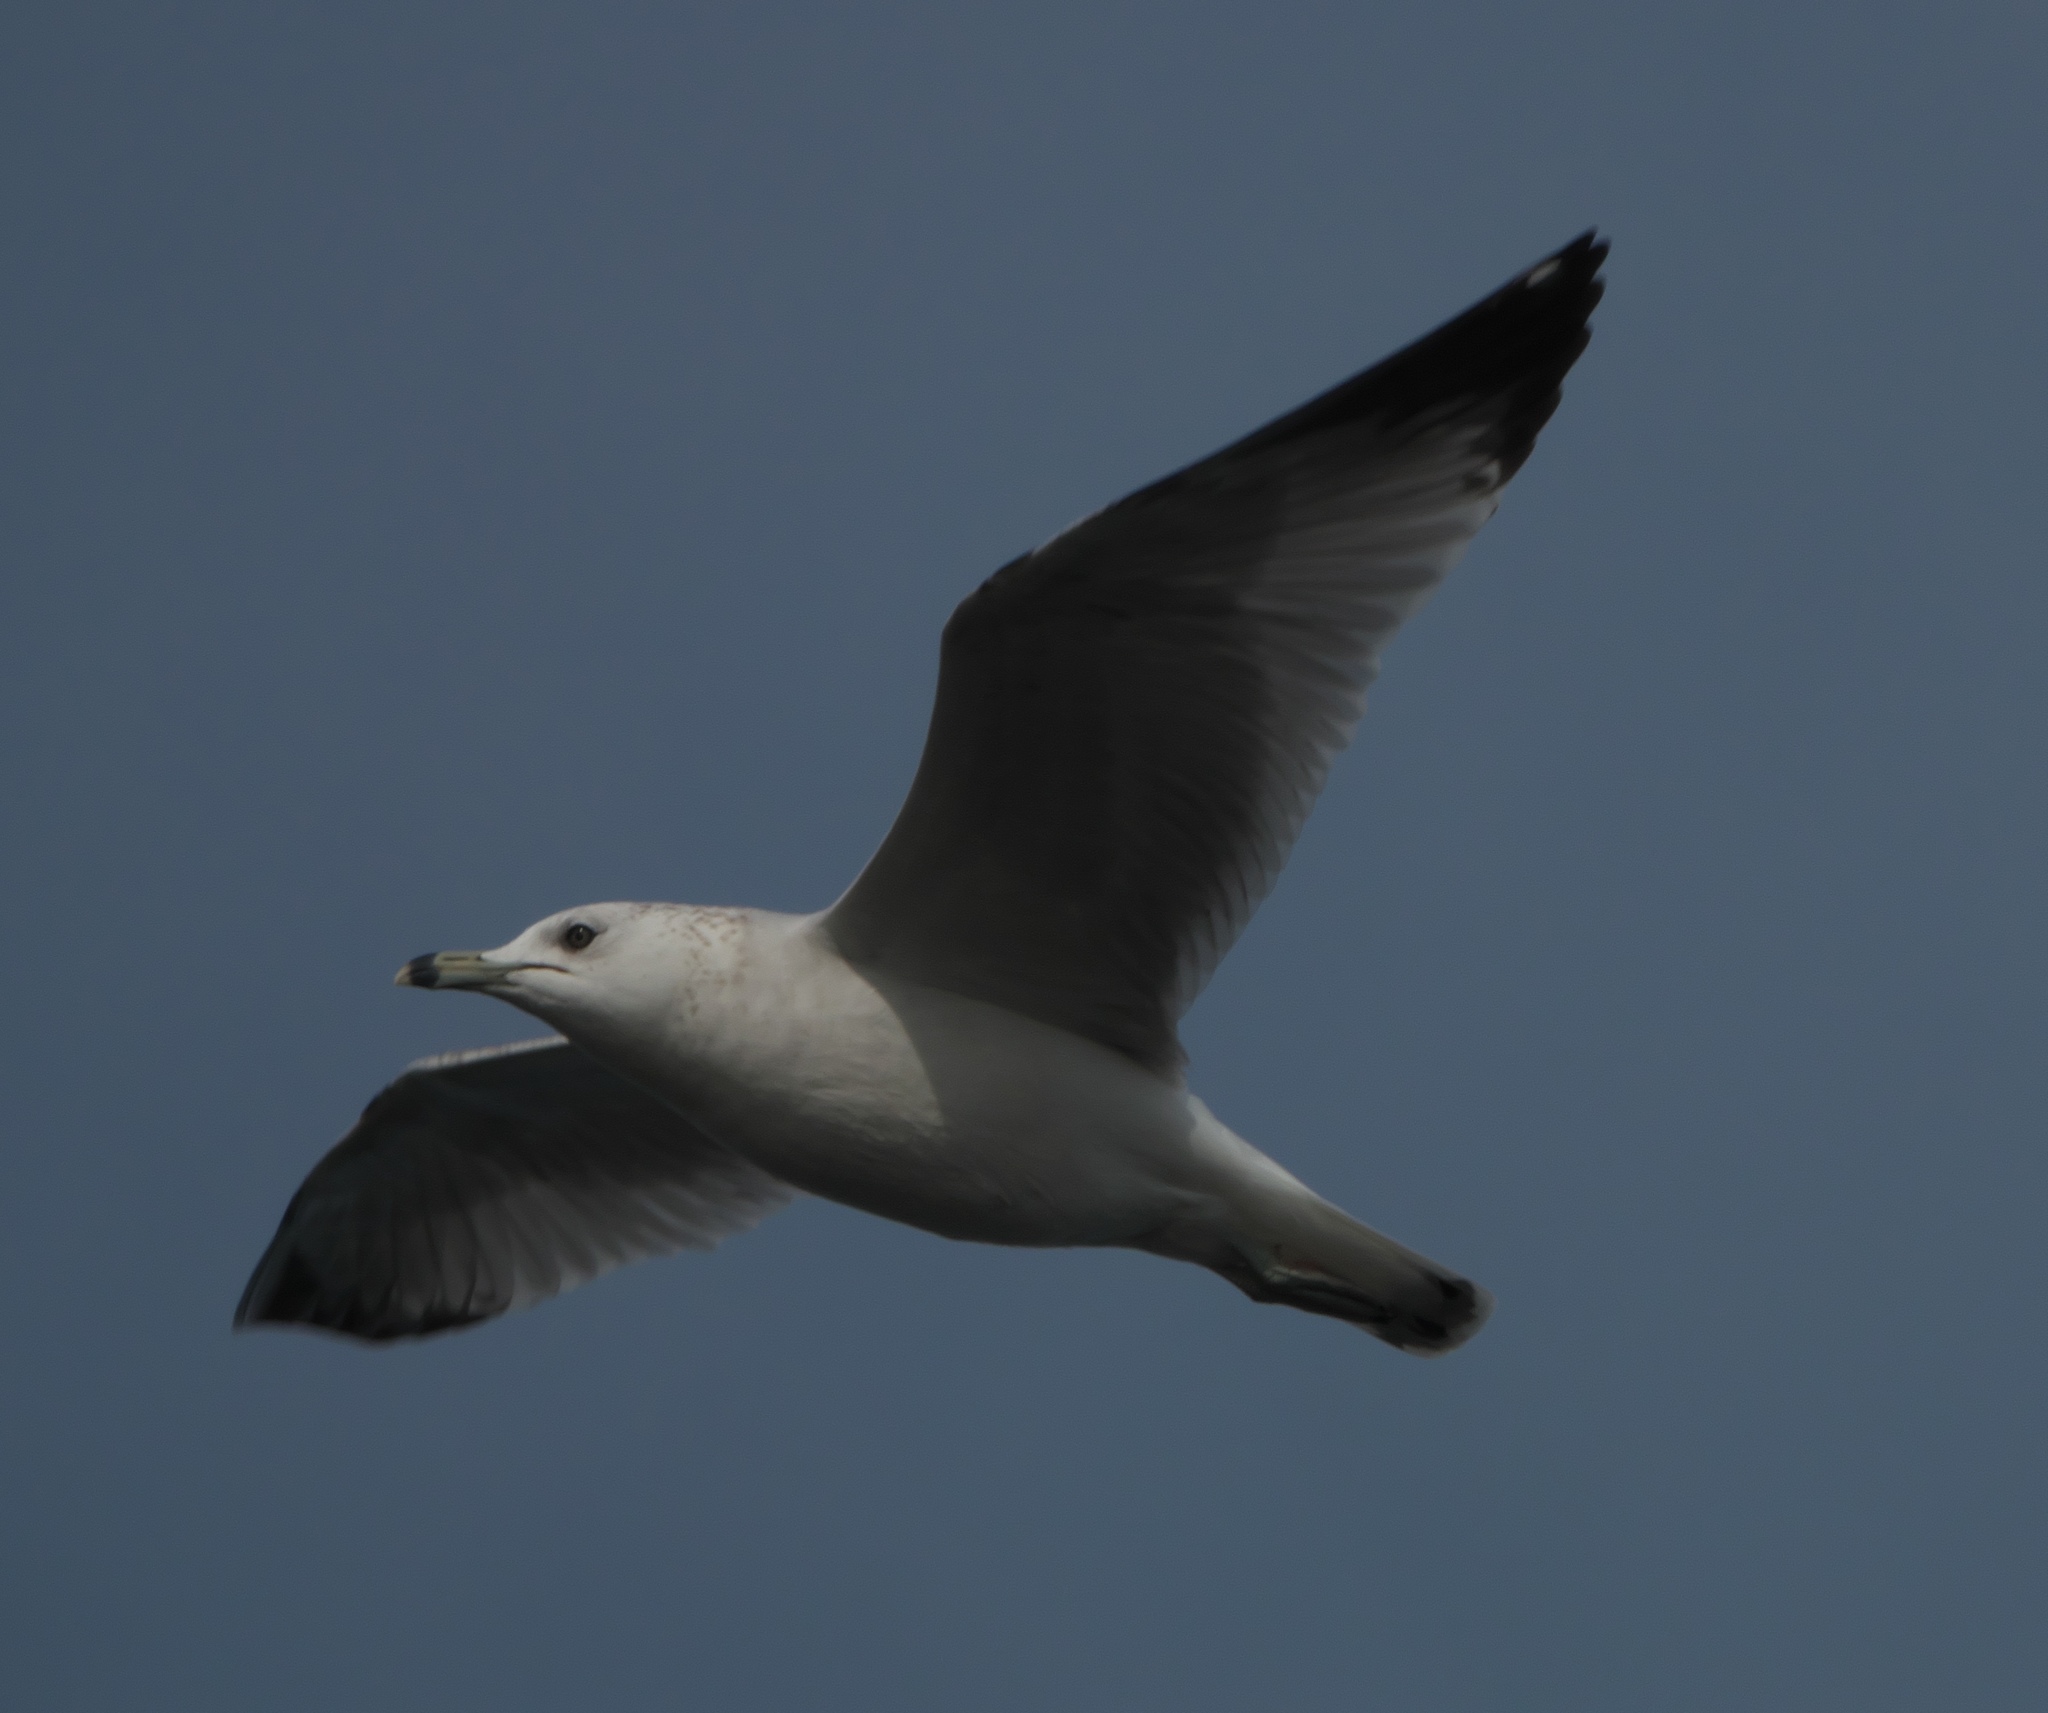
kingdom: Animalia
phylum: Chordata
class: Aves
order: Charadriiformes
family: Laridae
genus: Larus
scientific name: Larus delawarensis
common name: Ring-billed gull
